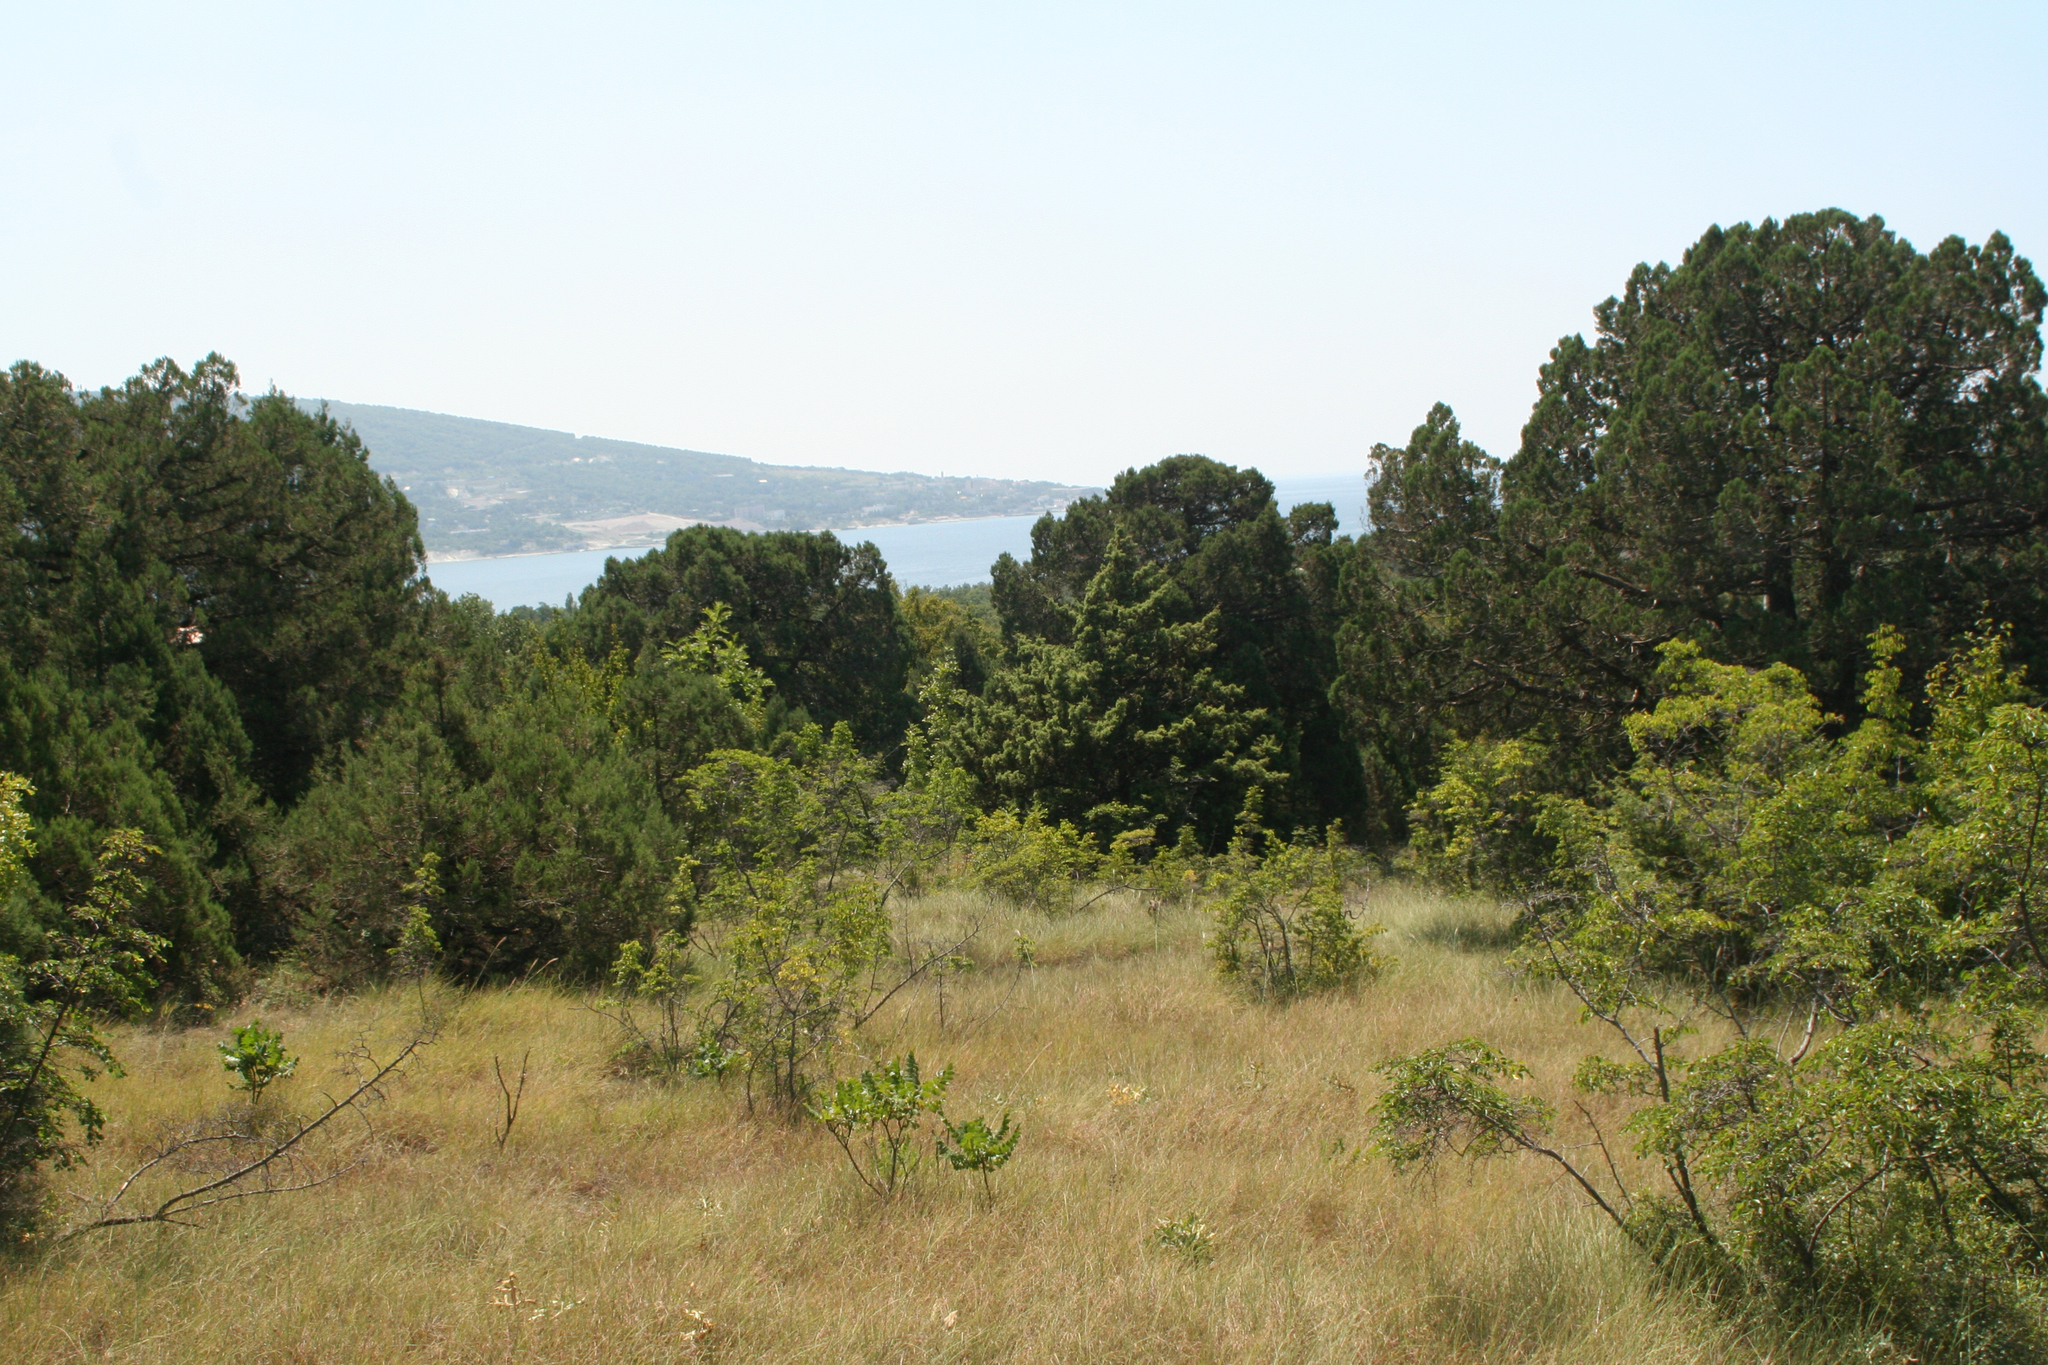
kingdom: Plantae
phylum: Tracheophyta
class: Magnoliopsida
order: Rosales
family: Rhamnaceae
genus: Paliurus
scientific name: Paliurus spina-christi
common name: Jeruselem thorn
